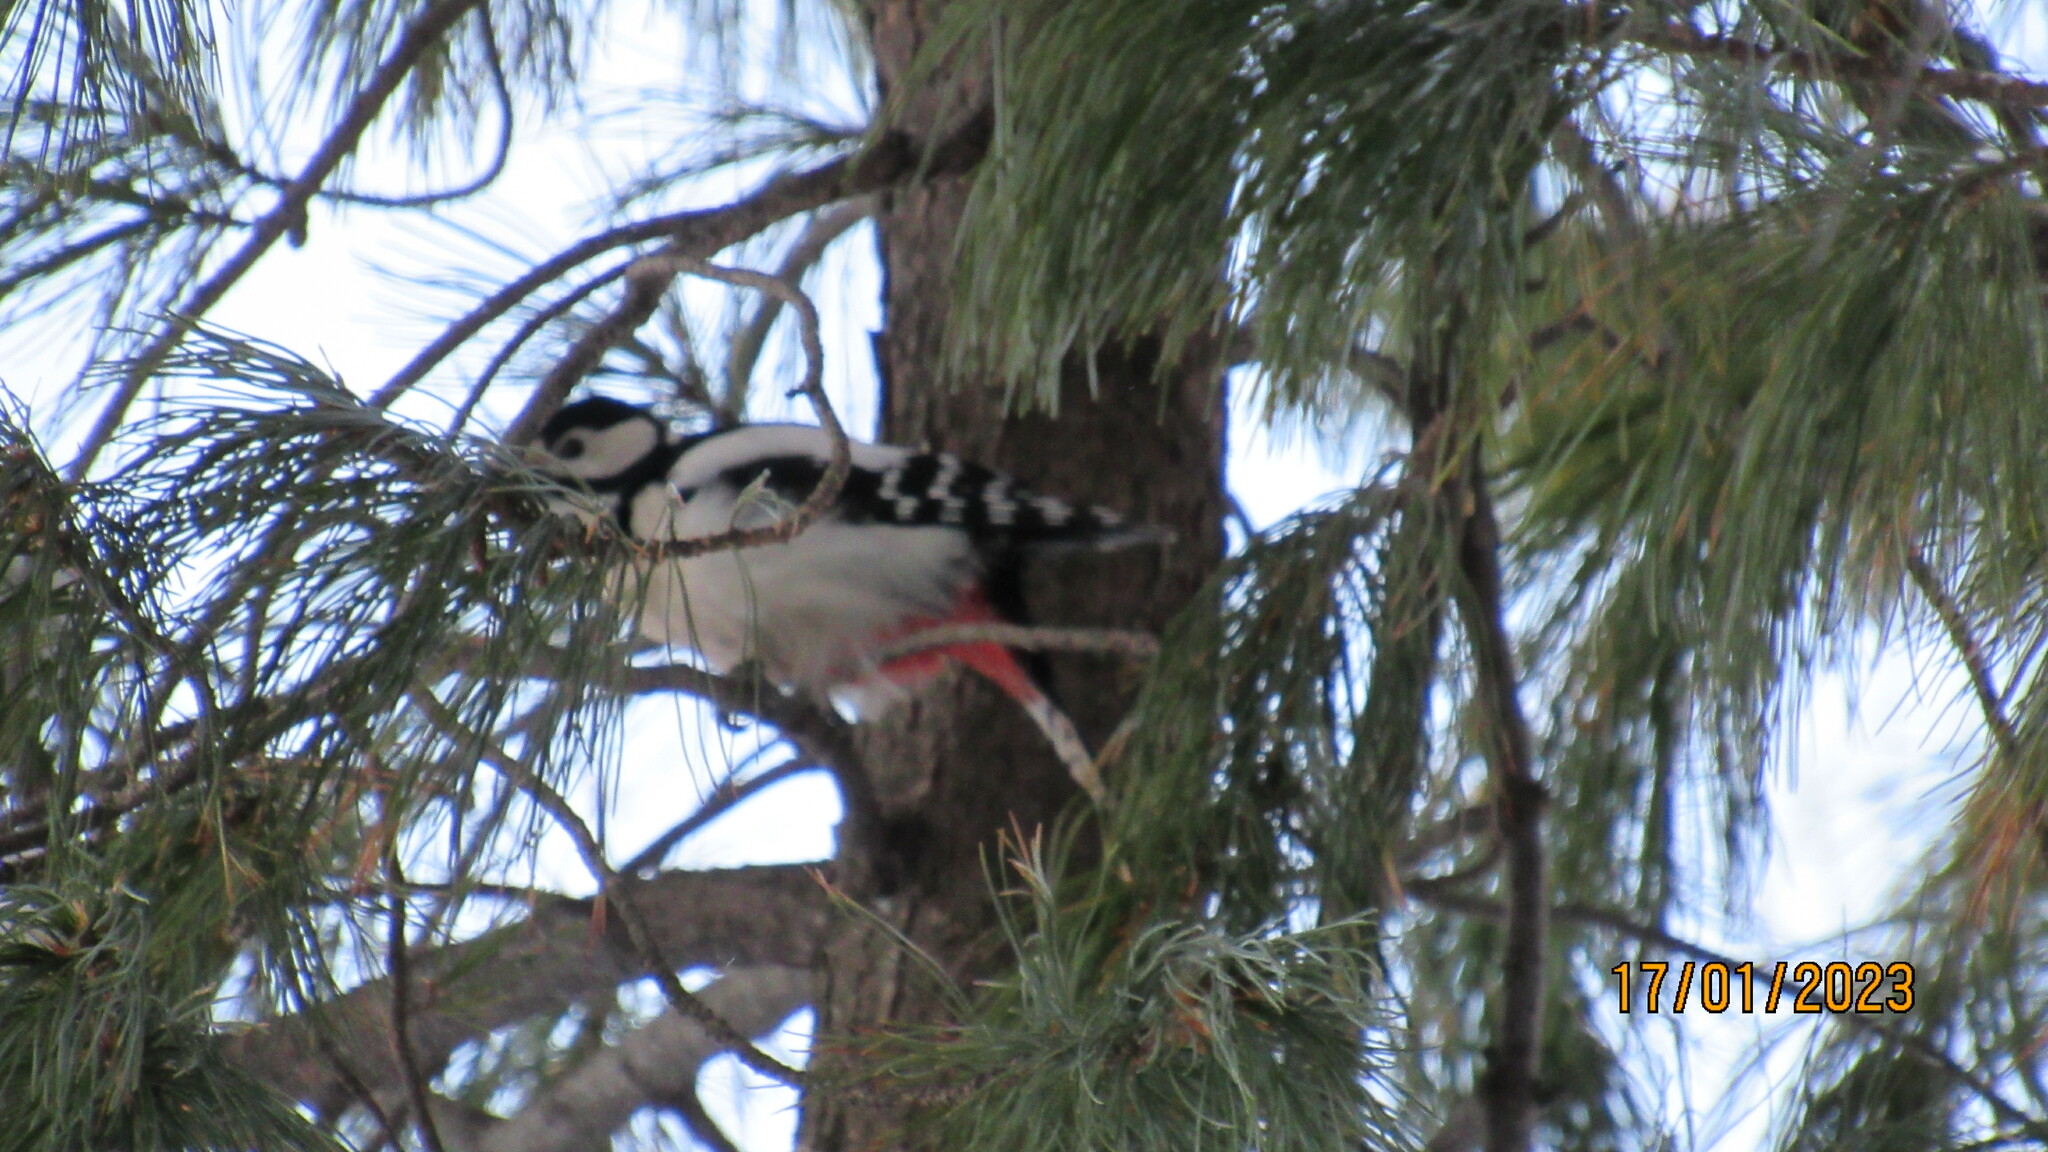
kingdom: Animalia
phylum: Chordata
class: Aves
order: Piciformes
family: Picidae
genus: Dendrocopos
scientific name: Dendrocopos major
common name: Great spotted woodpecker
